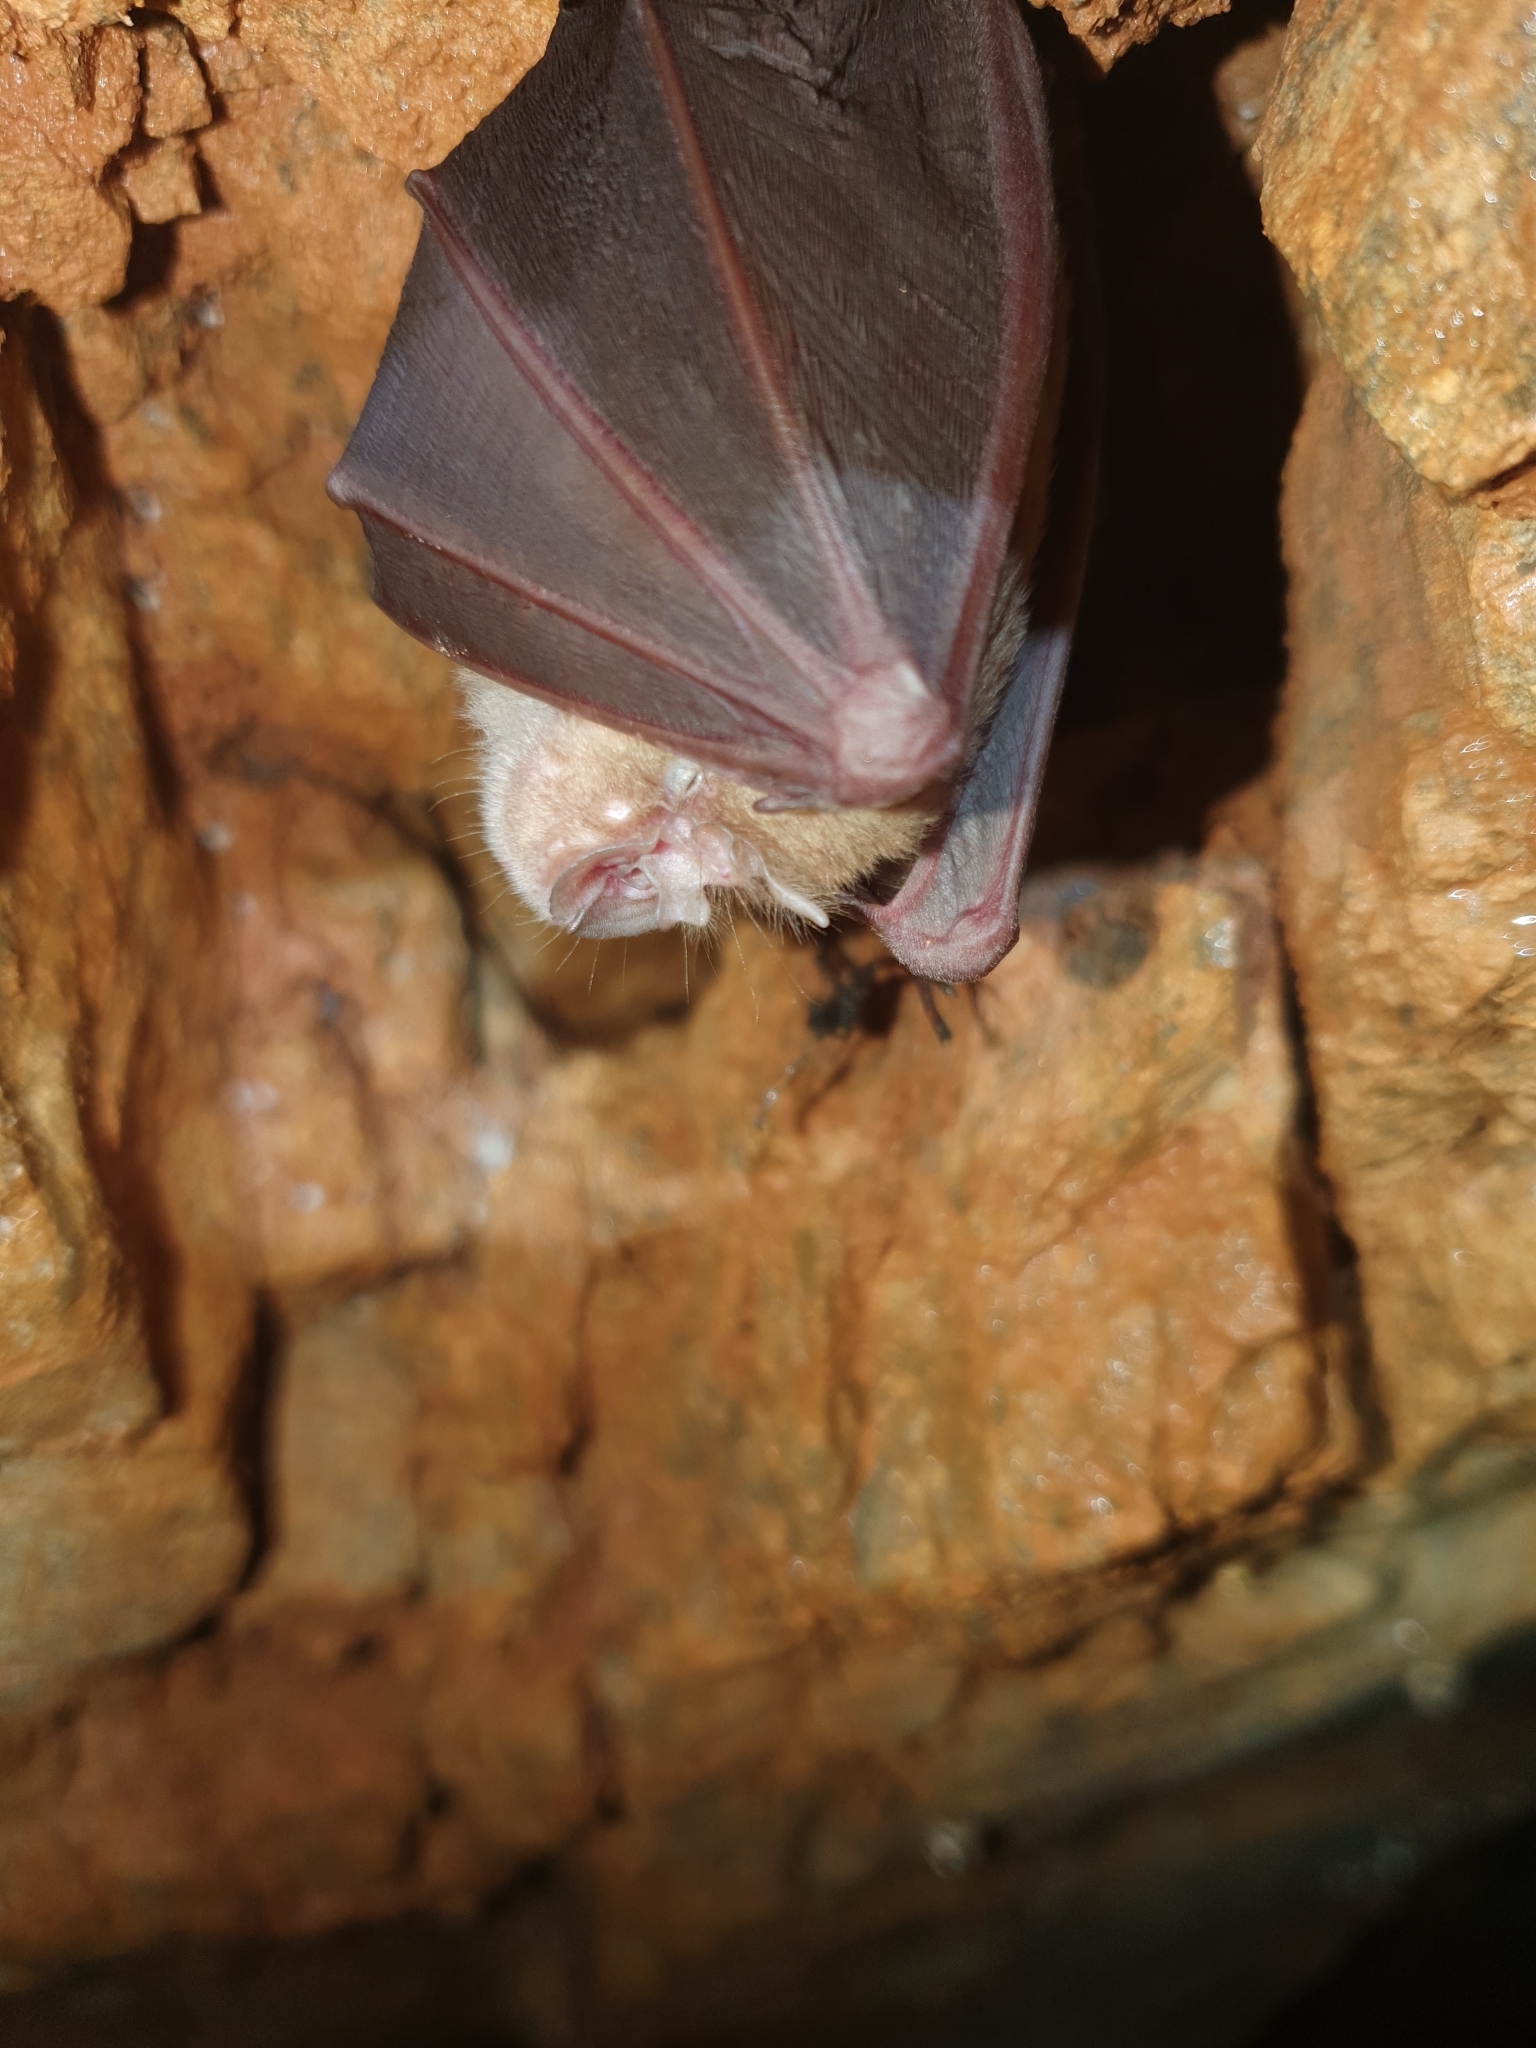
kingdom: Animalia
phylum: Chordata
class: Mammalia
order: Chiroptera
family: Rhinolophidae
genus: Rhinolophus
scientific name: Rhinolophus ferrumequinum
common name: Greater horseshoe bat
